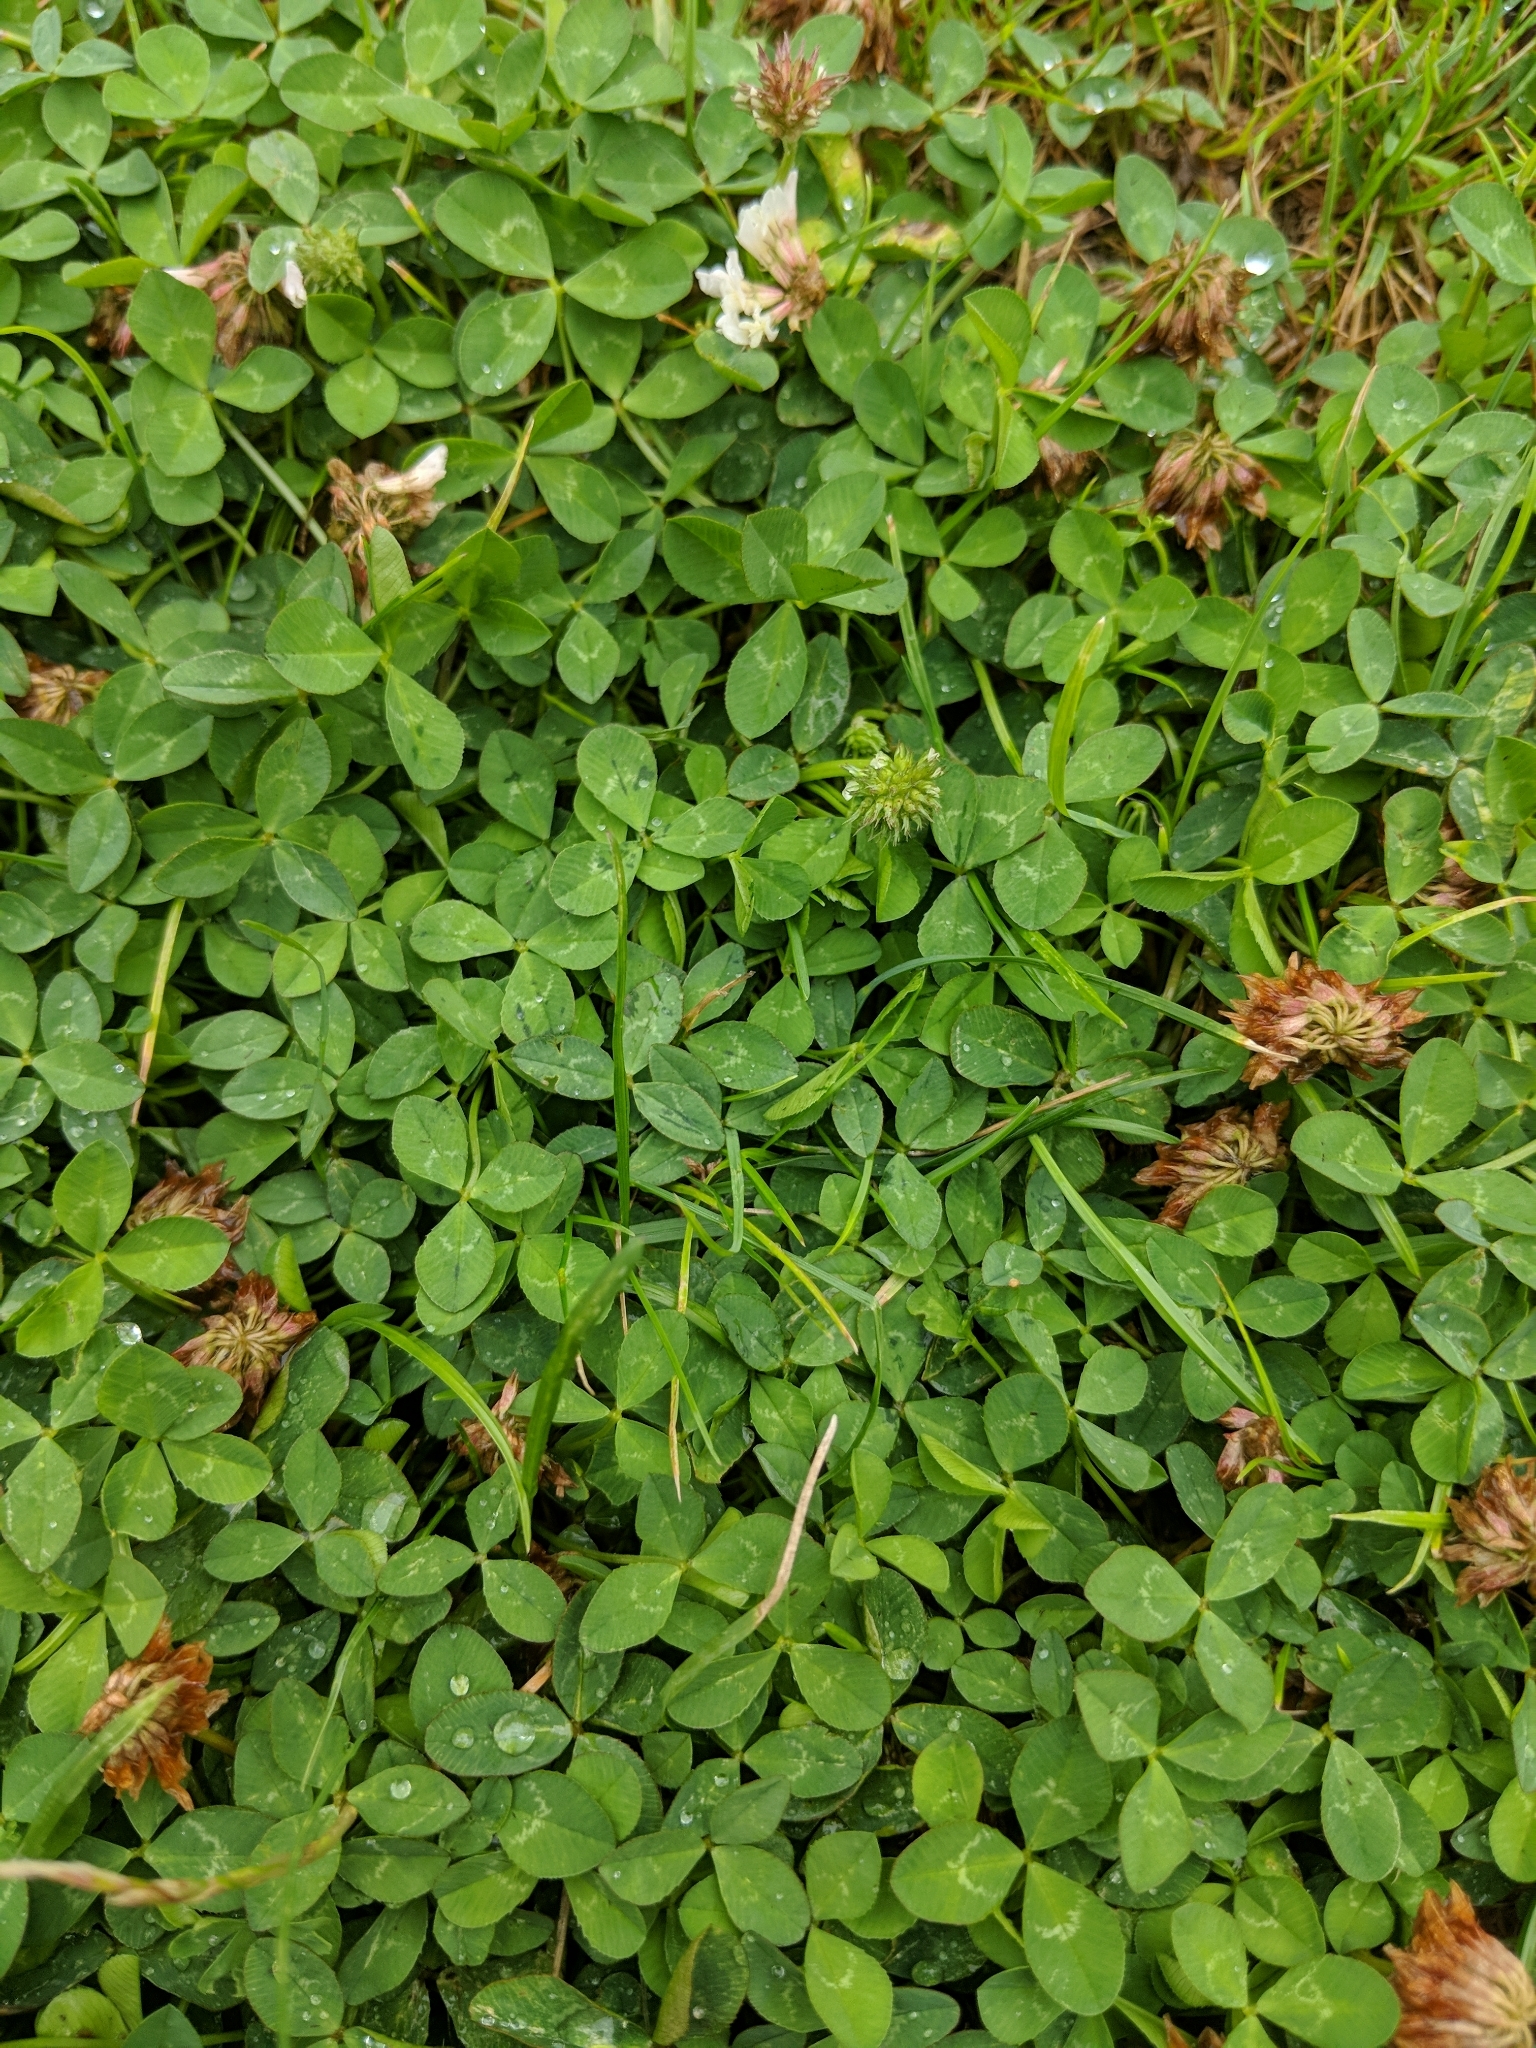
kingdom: Plantae
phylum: Tracheophyta
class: Magnoliopsida
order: Fabales
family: Fabaceae
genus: Trifolium
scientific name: Trifolium repens
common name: White clover
